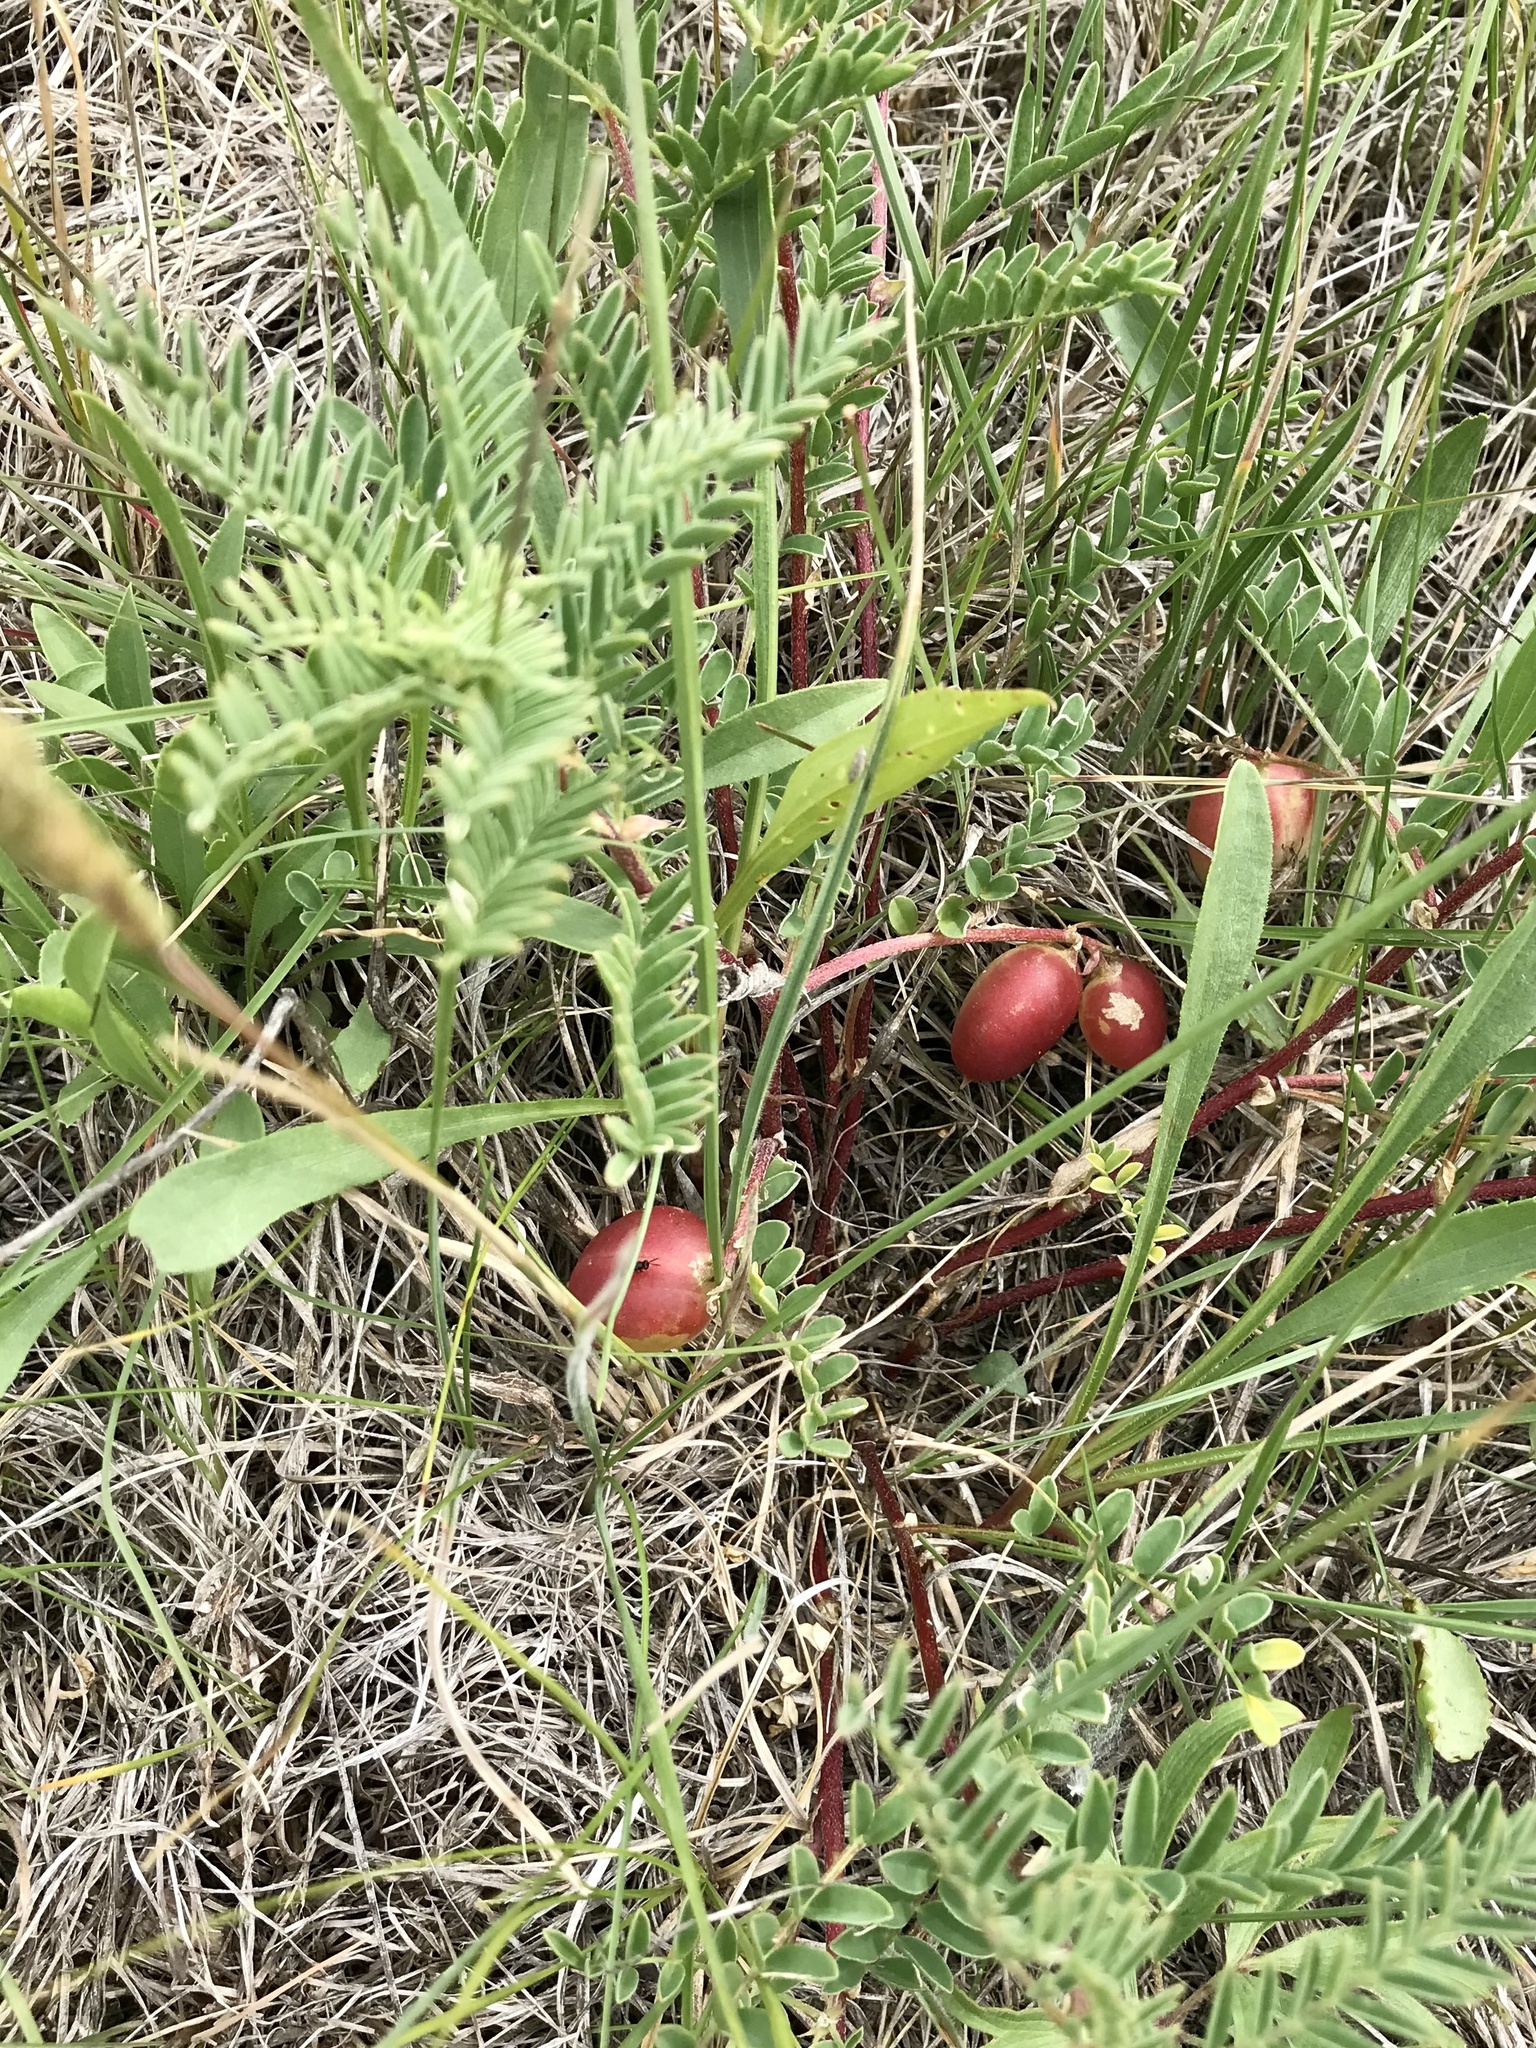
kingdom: Plantae
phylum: Tracheophyta
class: Magnoliopsida
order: Fabales
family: Fabaceae
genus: Astragalus
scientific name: Astragalus crassicarpus
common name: Ground-plum milk-vetch
